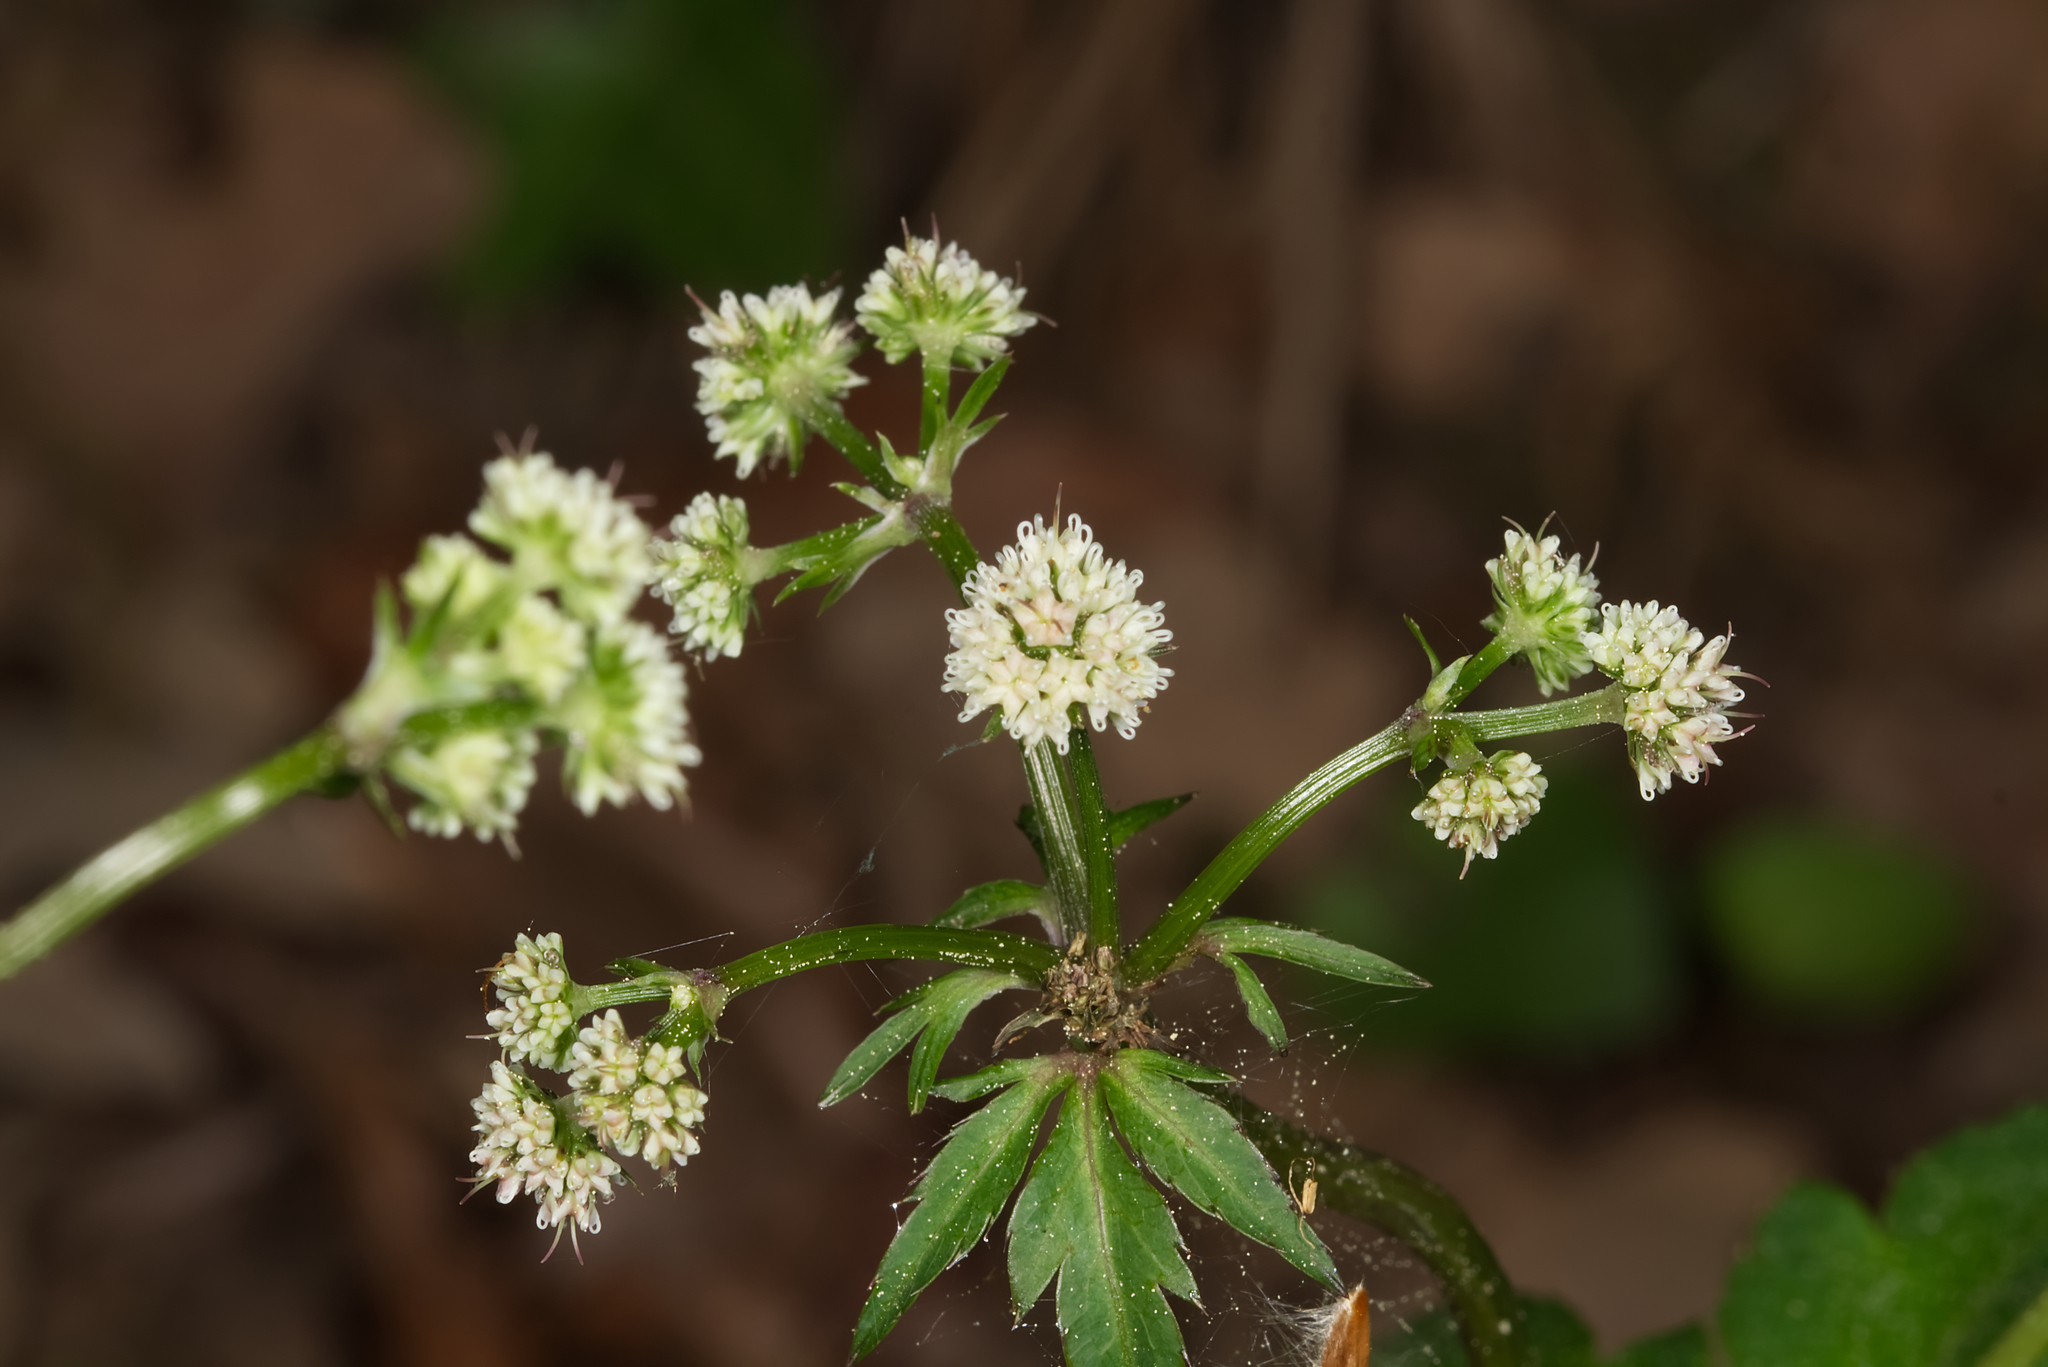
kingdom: Plantae
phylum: Tracheophyta
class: Magnoliopsida
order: Apiales
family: Apiaceae
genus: Sanicula
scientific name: Sanicula europaea
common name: Sanicle
